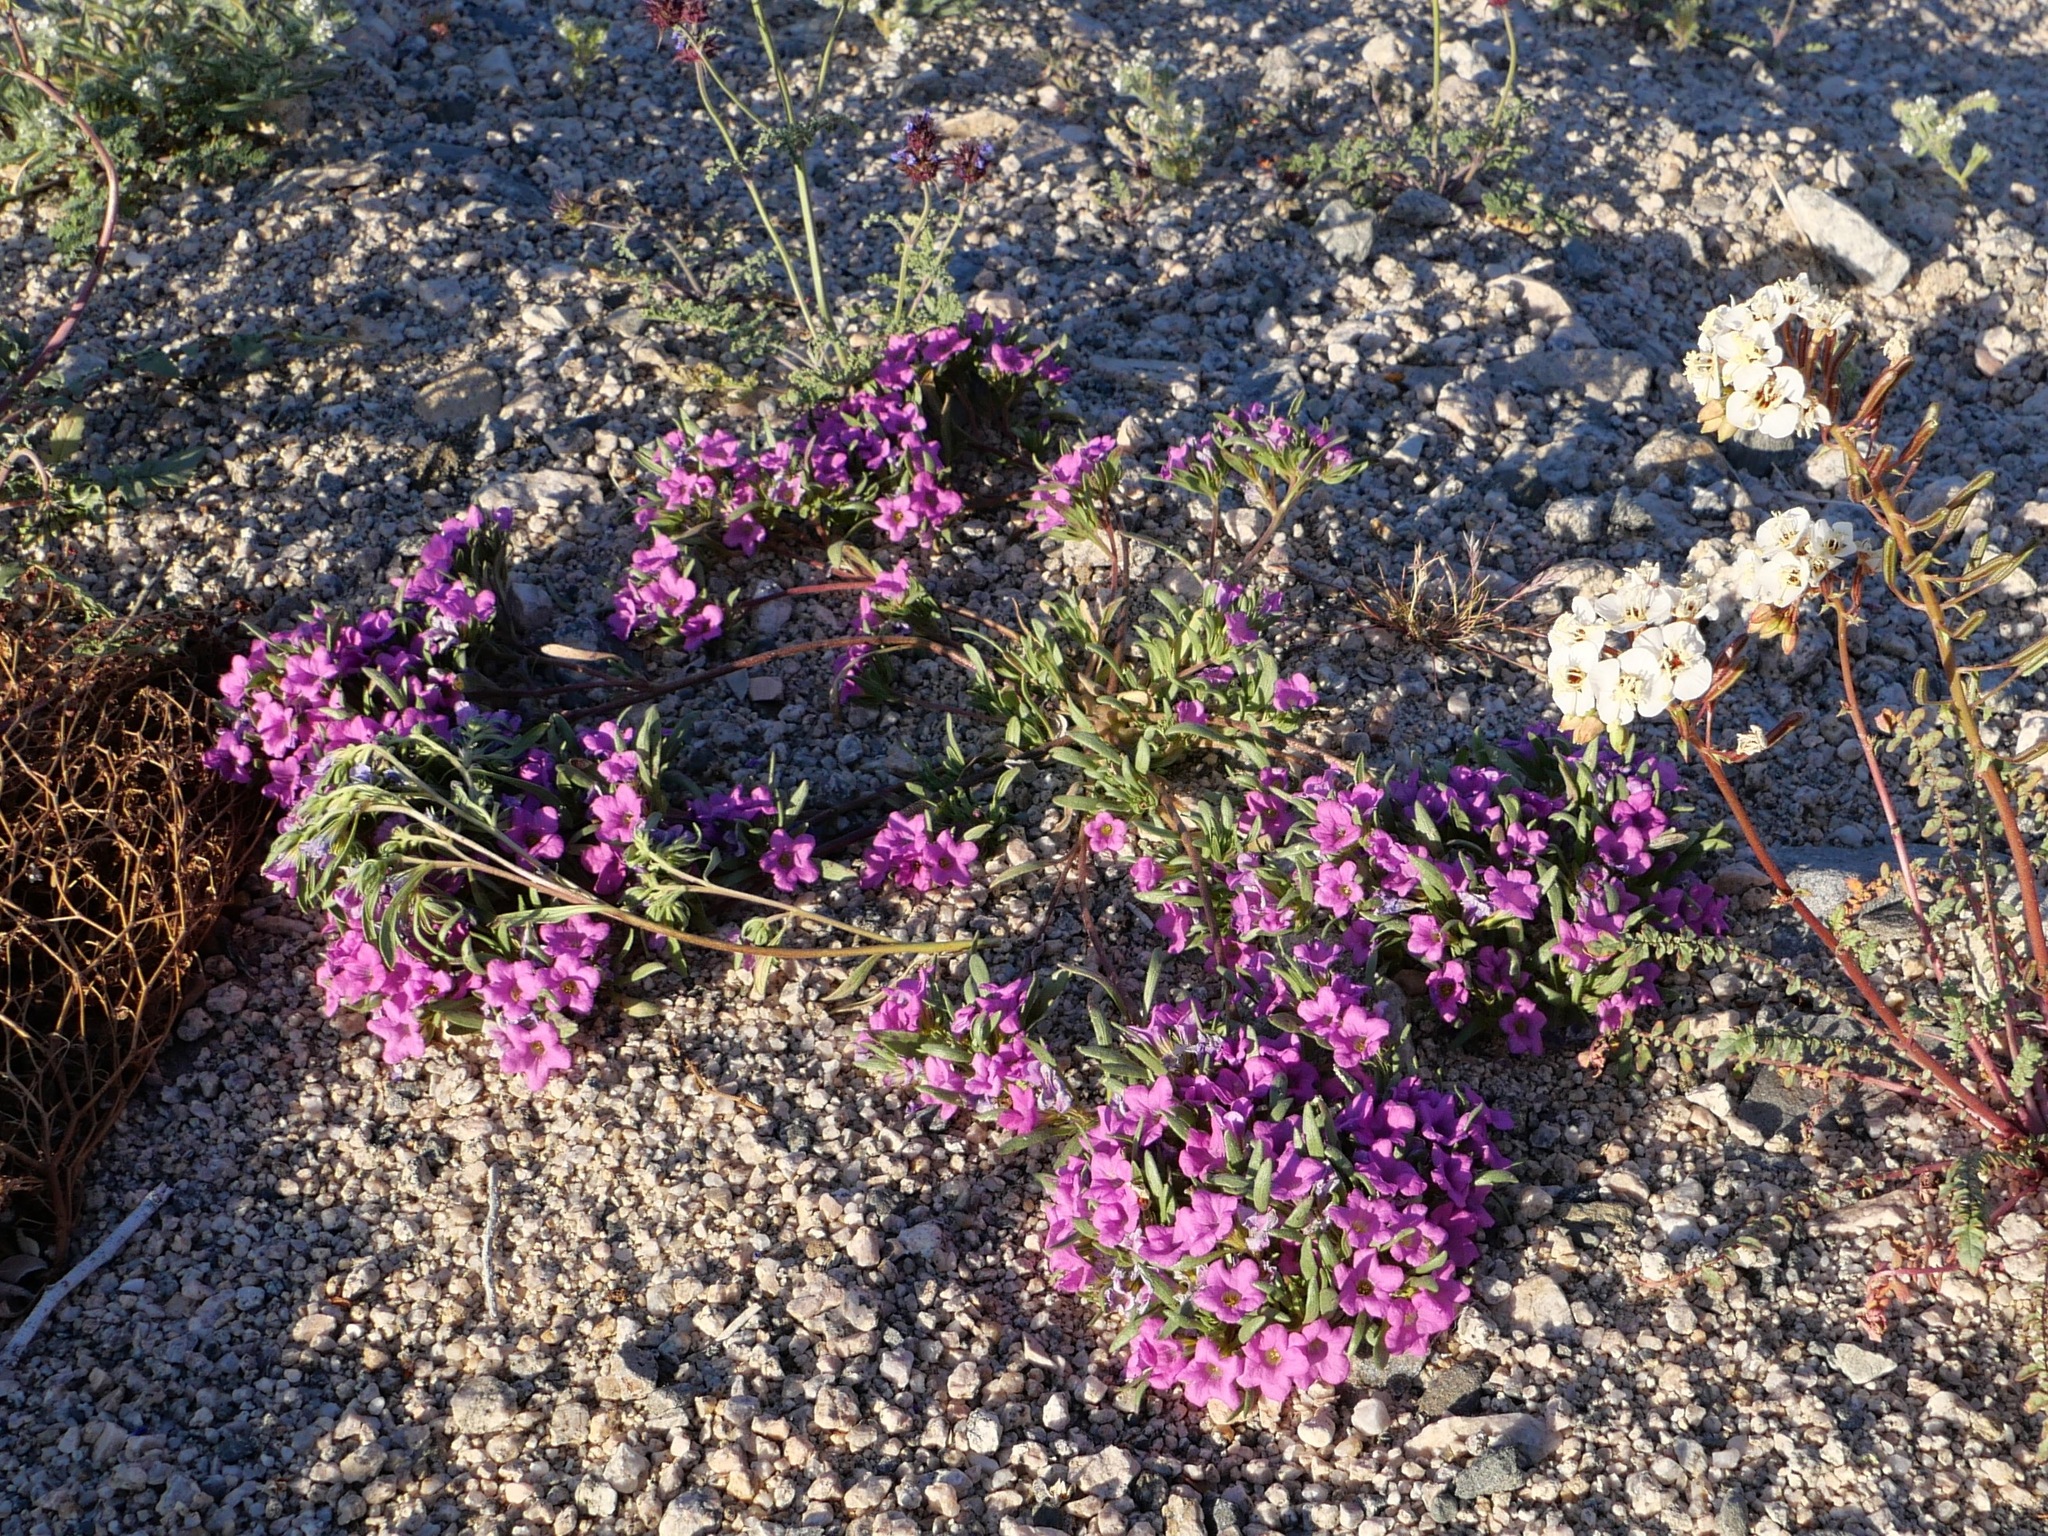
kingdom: Plantae
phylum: Tracheophyta
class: Magnoliopsida
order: Boraginales
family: Namaceae
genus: Nama
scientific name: Nama demissa
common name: Leafy nama
